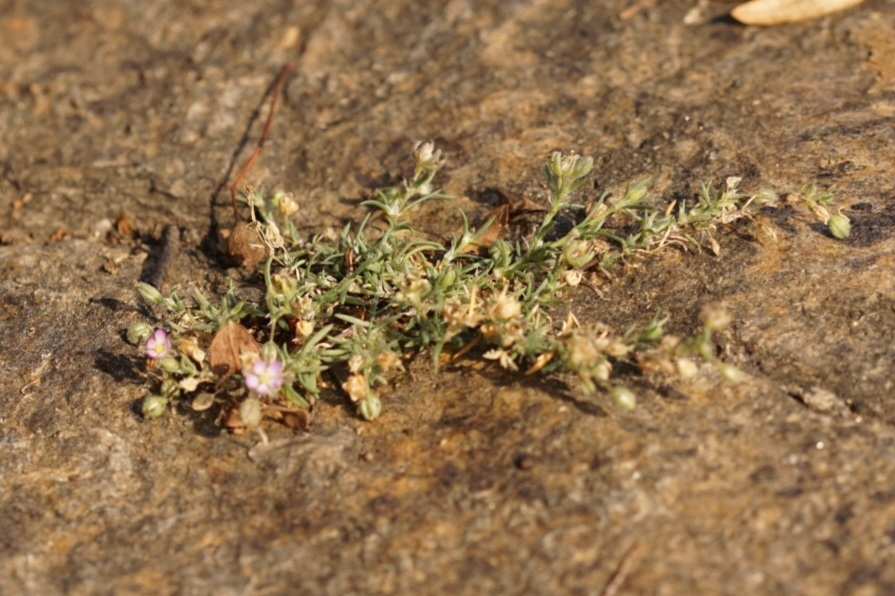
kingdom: Plantae
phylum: Tracheophyta
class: Magnoliopsida
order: Caryophyllales
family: Caryophyllaceae
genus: Spergularia
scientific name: Spergularia rubra
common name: Red sand-spurrey
